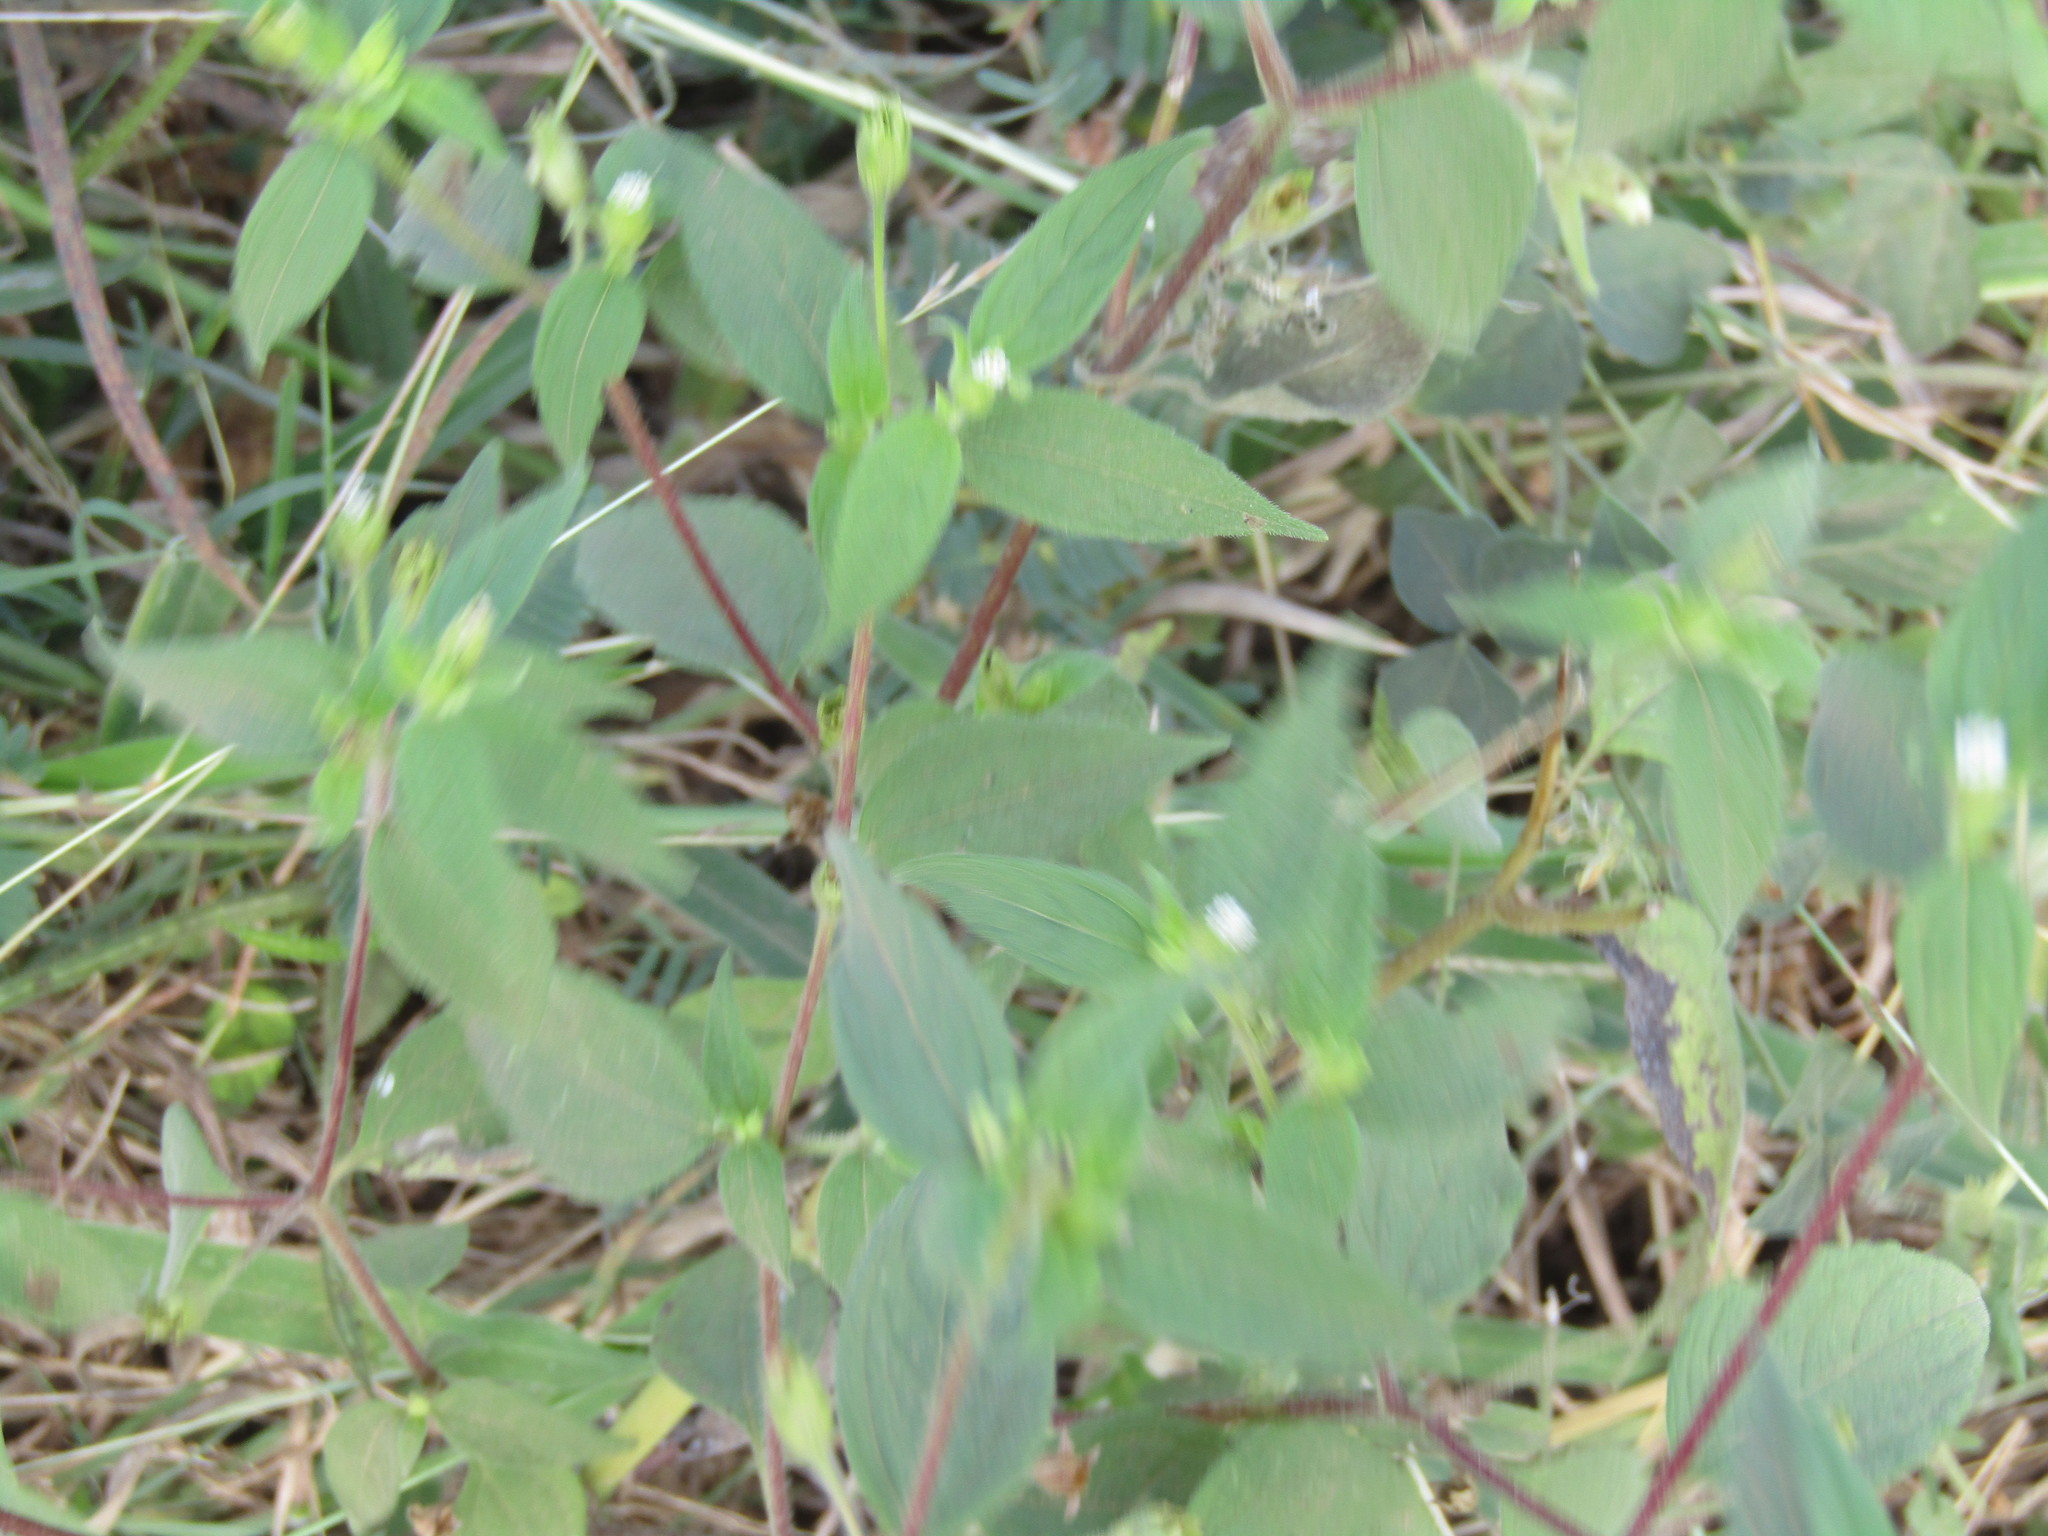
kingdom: Plantae
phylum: Tracheophyta
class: Magnoliopsida
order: Asterales
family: Asteraceae
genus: Blainvillea
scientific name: Blainvillea gayana
